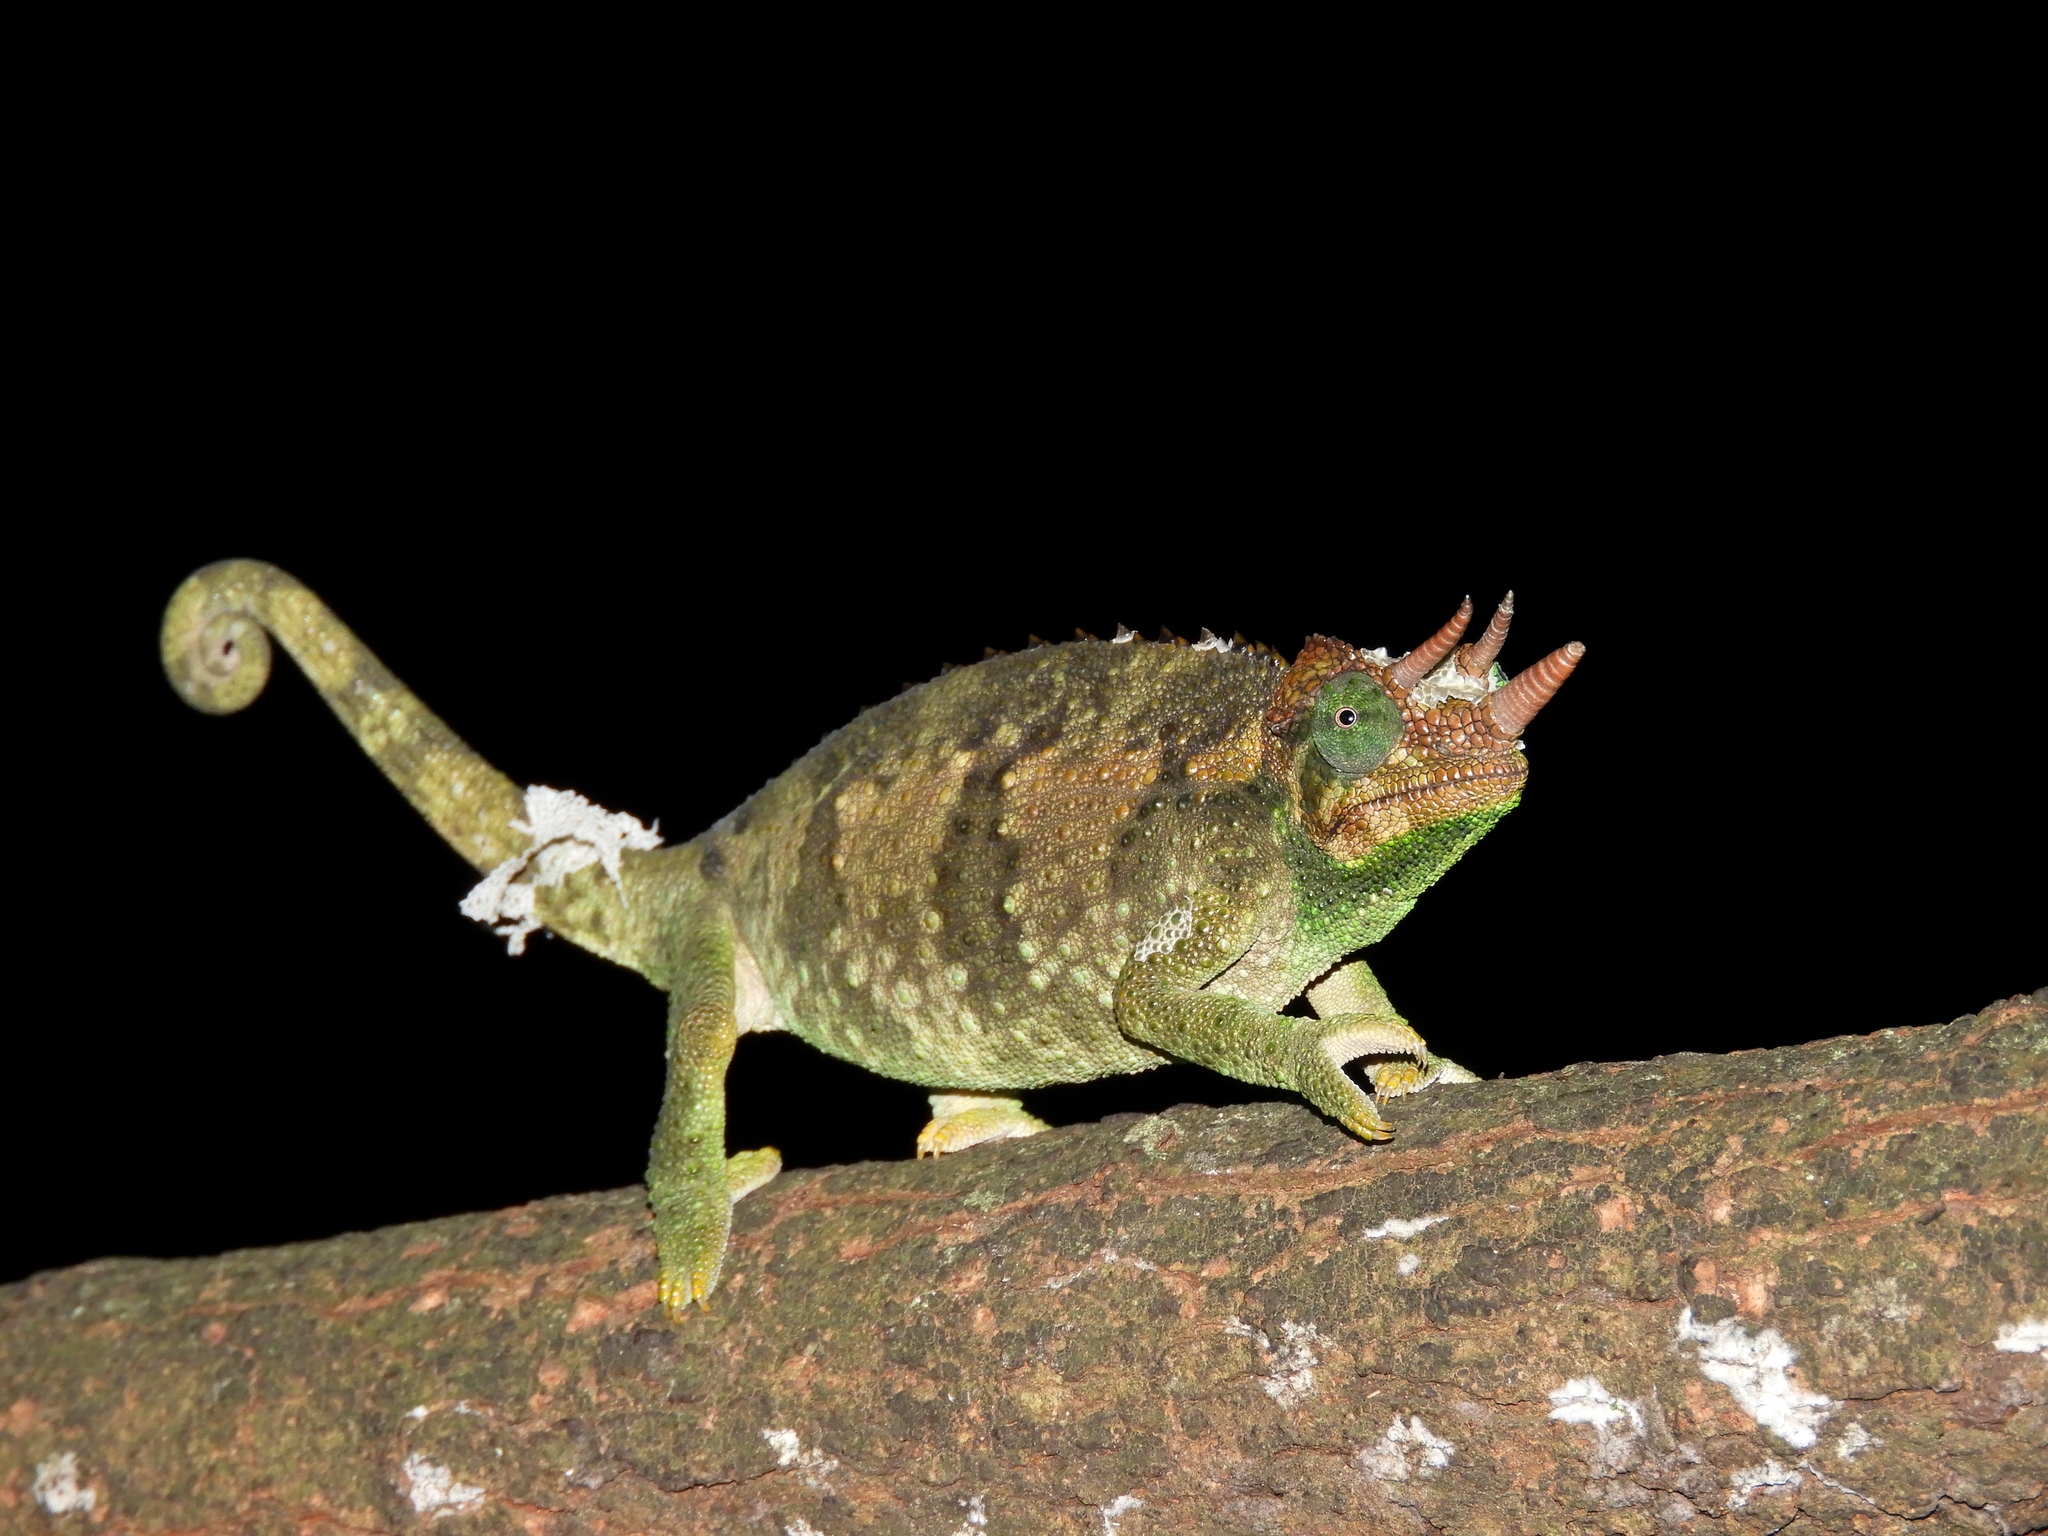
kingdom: Animalia
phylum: Chordata
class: Squamata
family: Chamaeleonidae
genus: Trioceros
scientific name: Trioceros jacksonii
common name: Jackson's chameleon
